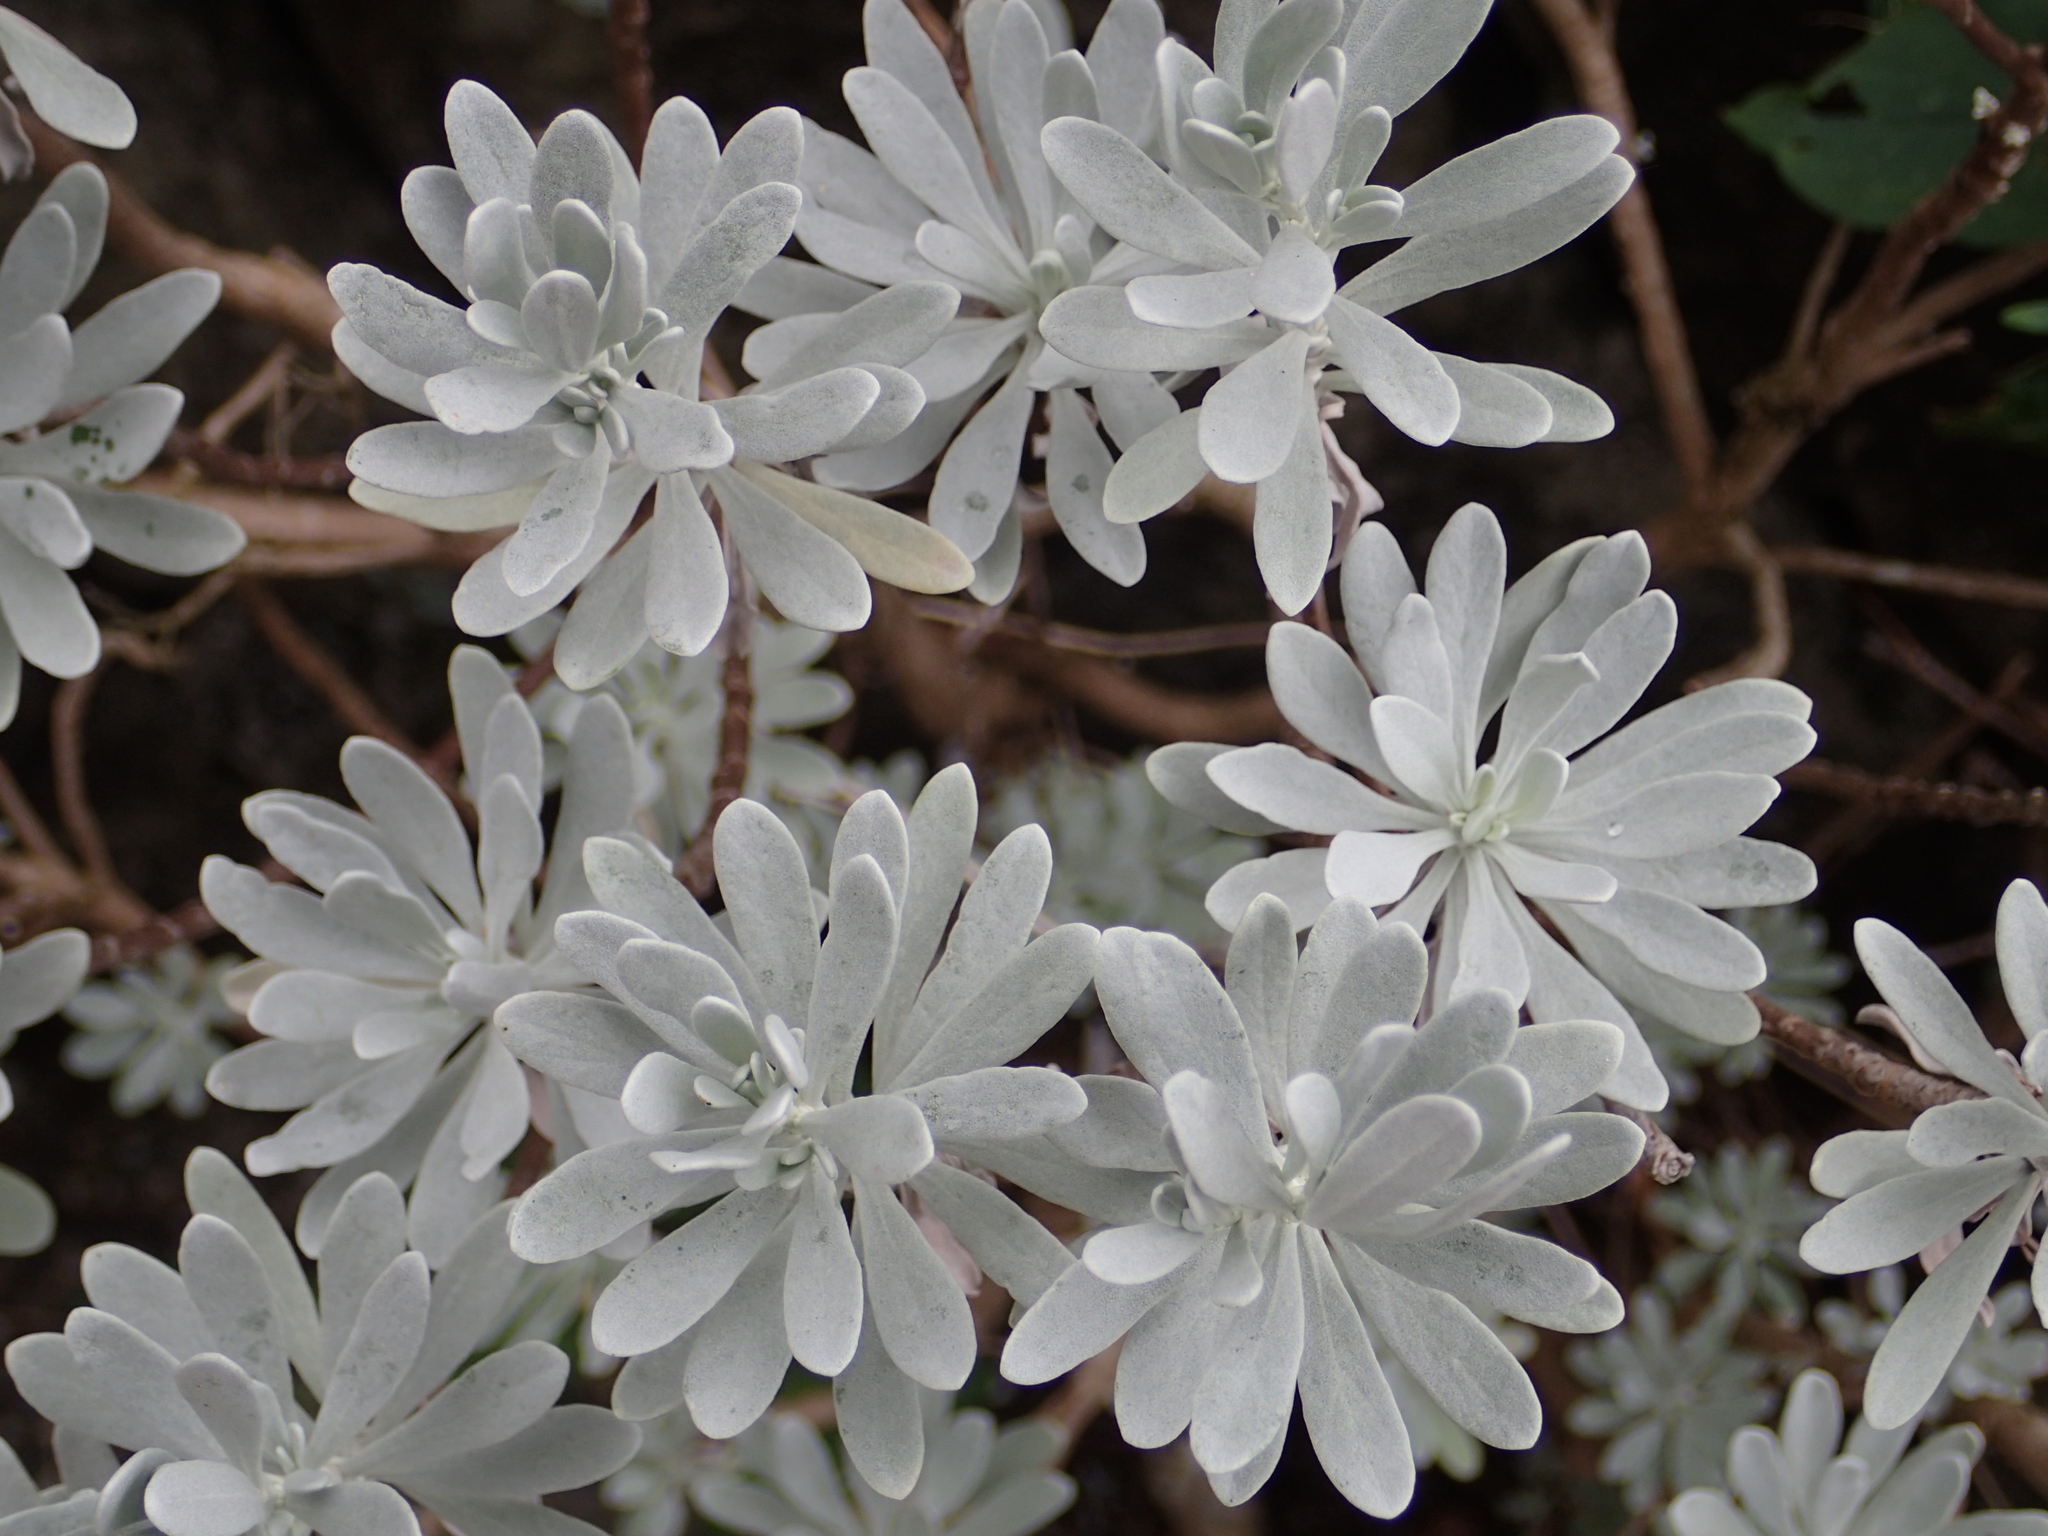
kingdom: Plantae
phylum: Tracheophyta
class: Magnoliopsida
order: Asterales
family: Asteraceae
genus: Crossostephium
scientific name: Crossostephium chinense
